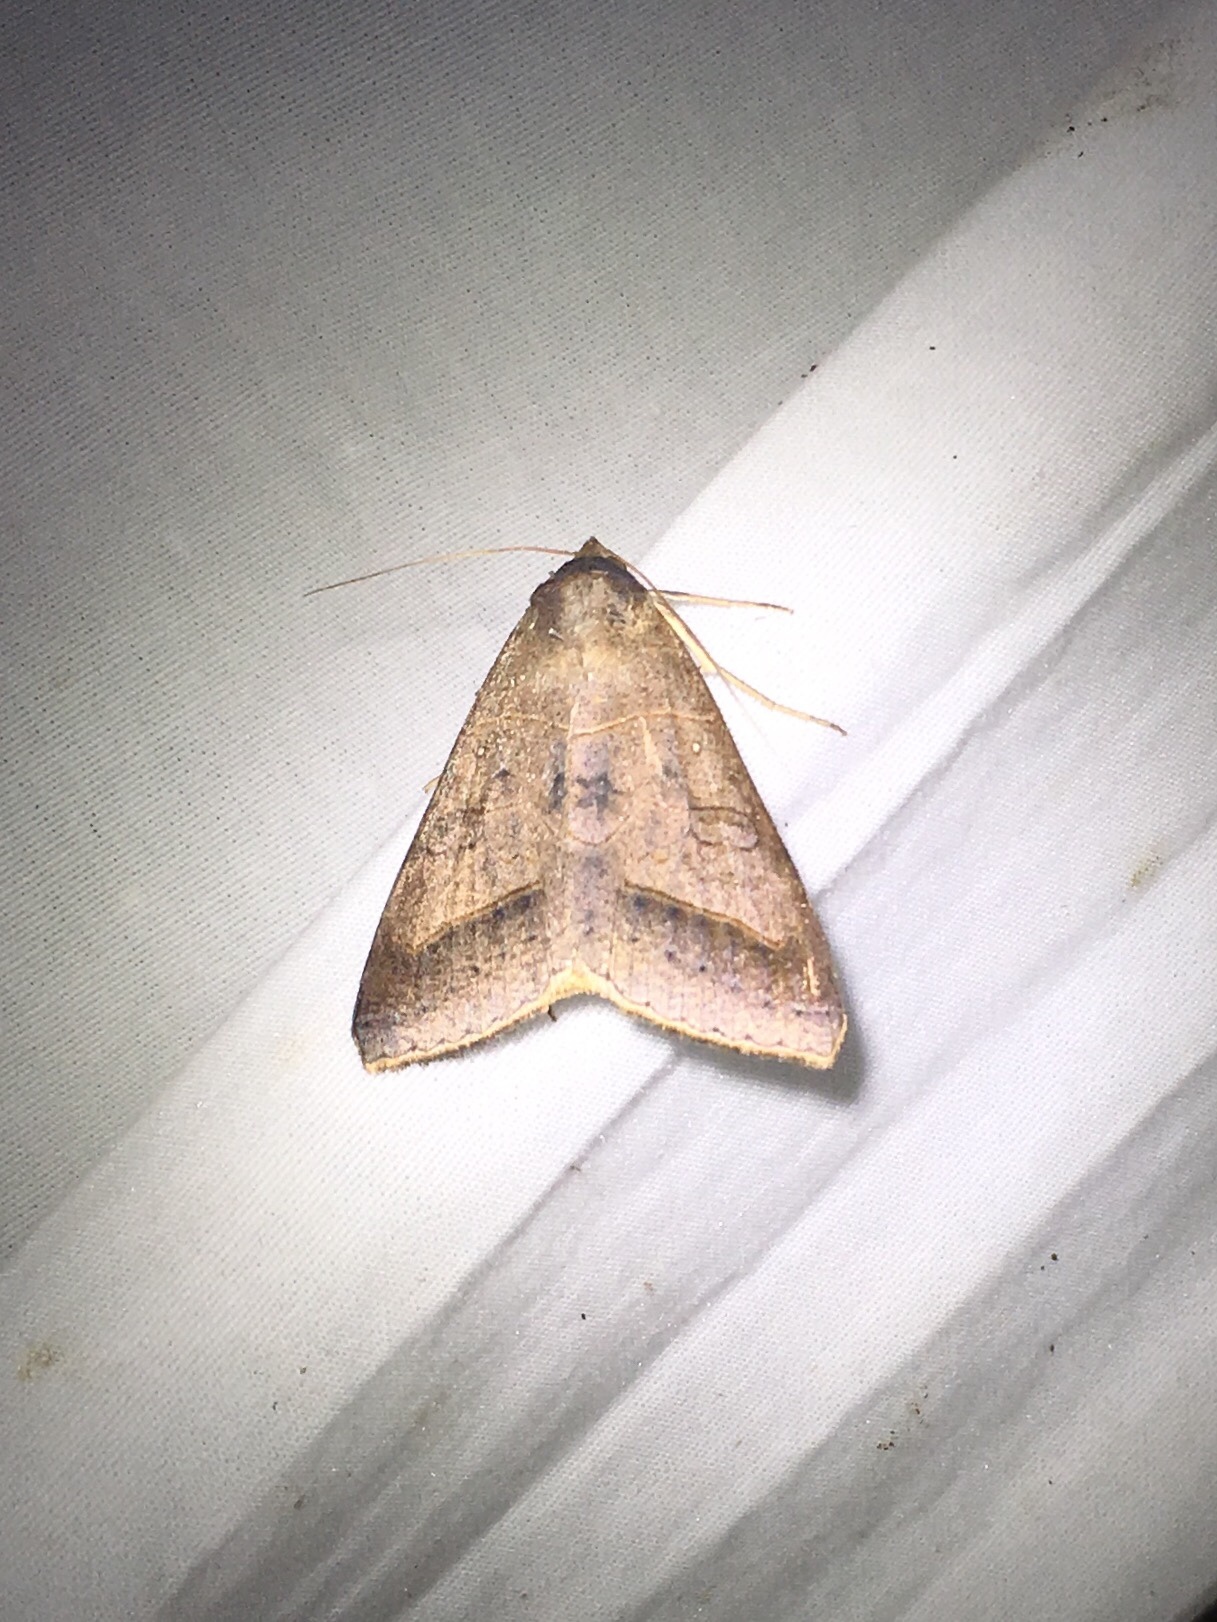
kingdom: Animalia
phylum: Arthropoda
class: Insecta
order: Lepidoptera
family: Erebidae
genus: Mocis
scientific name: Mocis marcida
